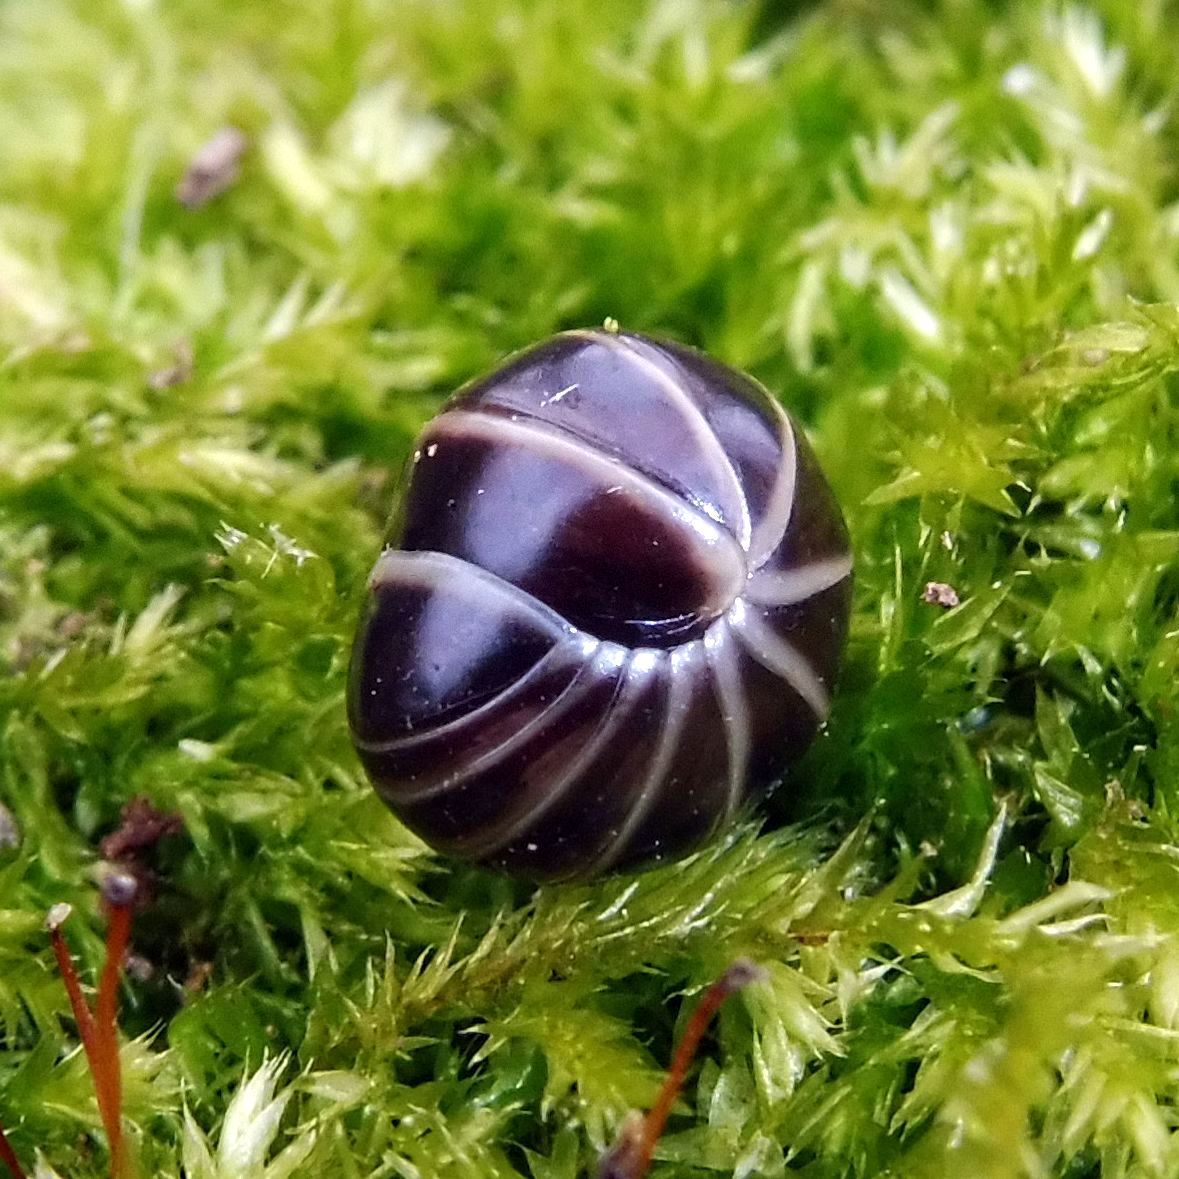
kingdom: Animalia
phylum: Arthropoda
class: Diplopoda
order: Glomerida
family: Glomeridae
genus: Glomeris
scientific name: Glomeris marginata
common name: Bordered pill millipede
